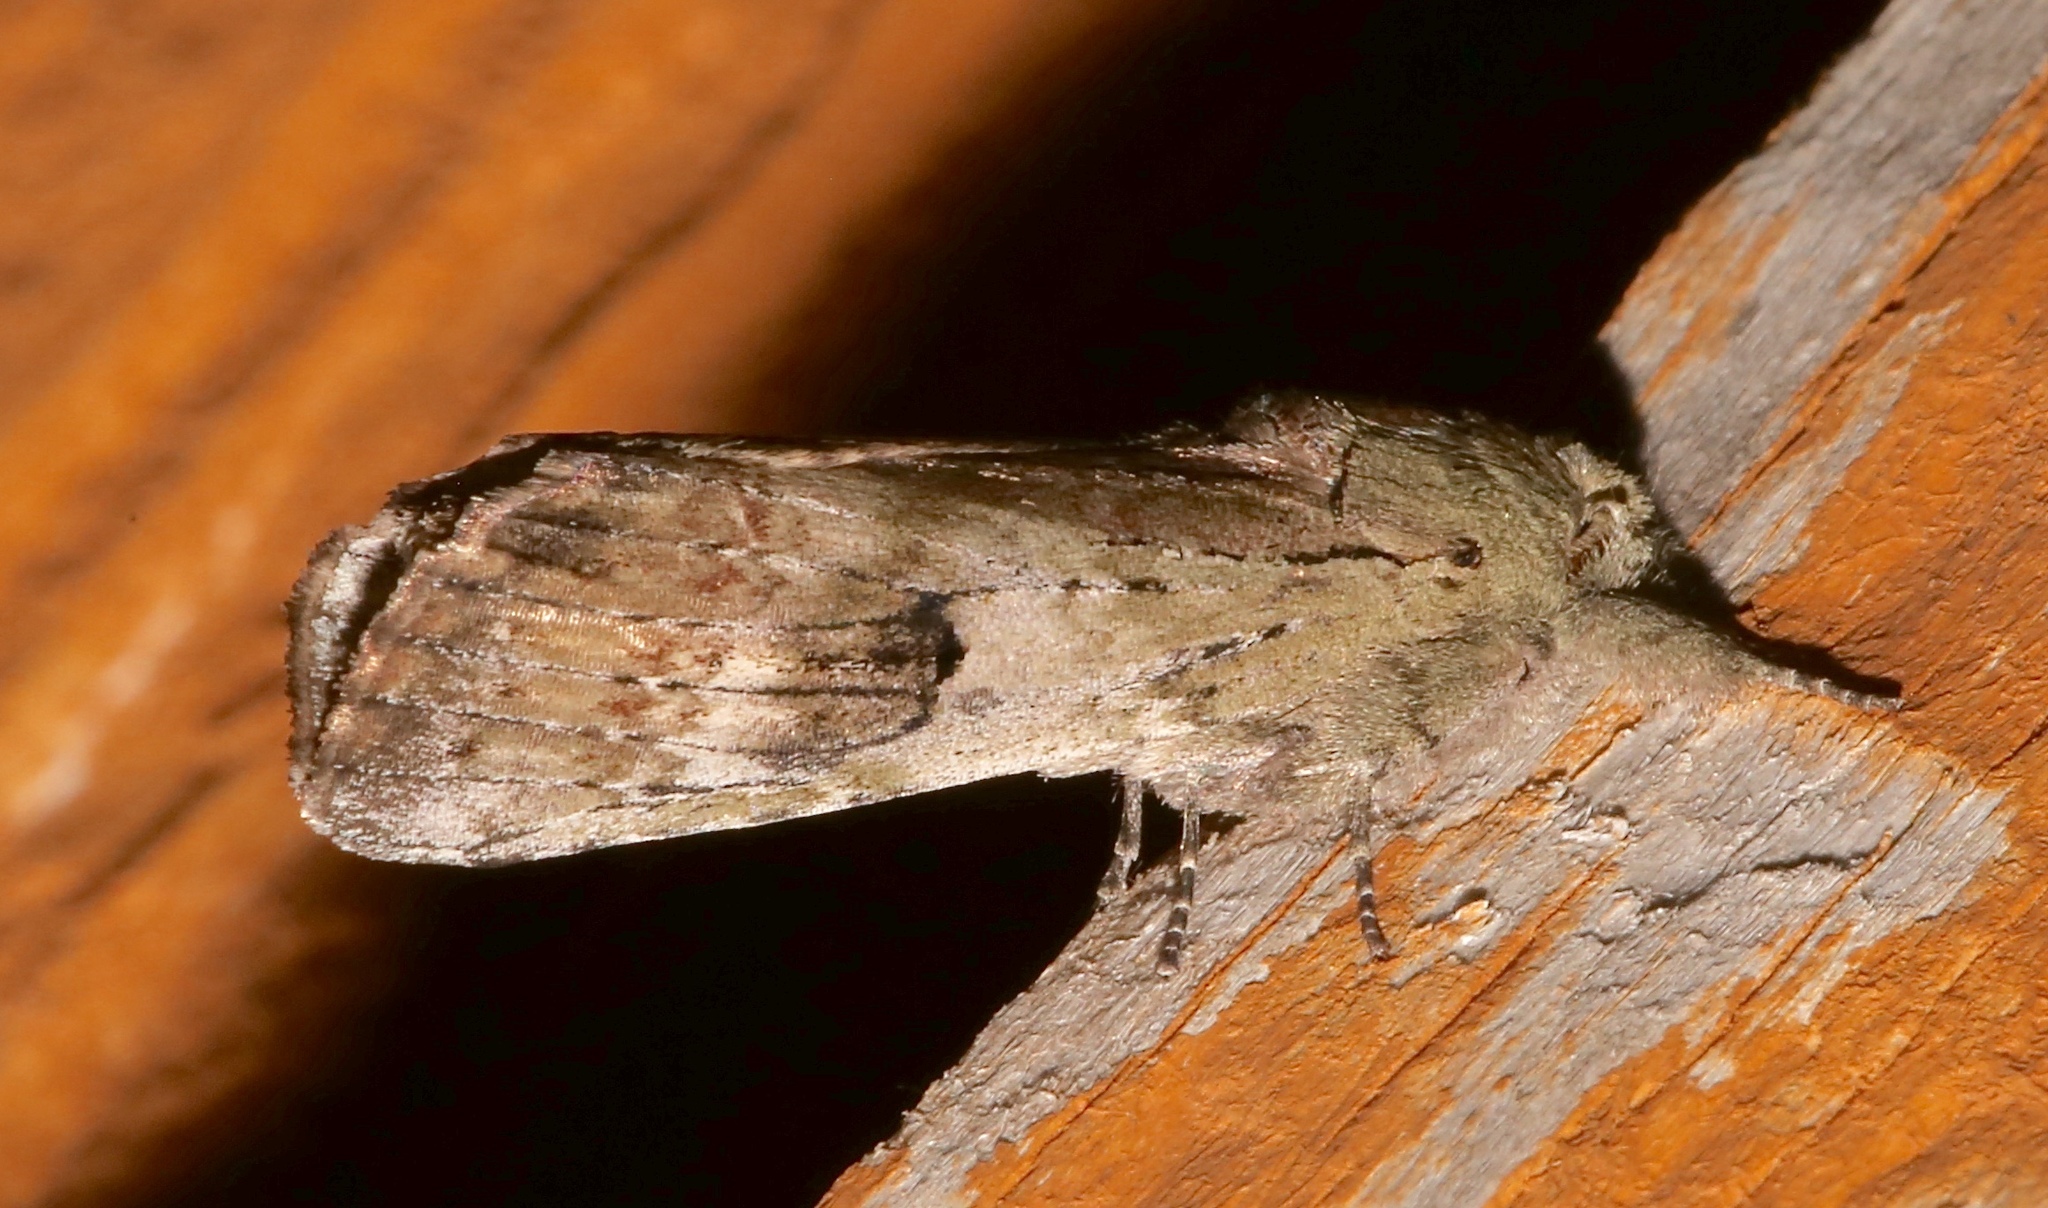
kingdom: Animalia
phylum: Arthropoda
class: Insecta
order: Lepidoptera
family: Notodontidae
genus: Schizura
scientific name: Schizura
